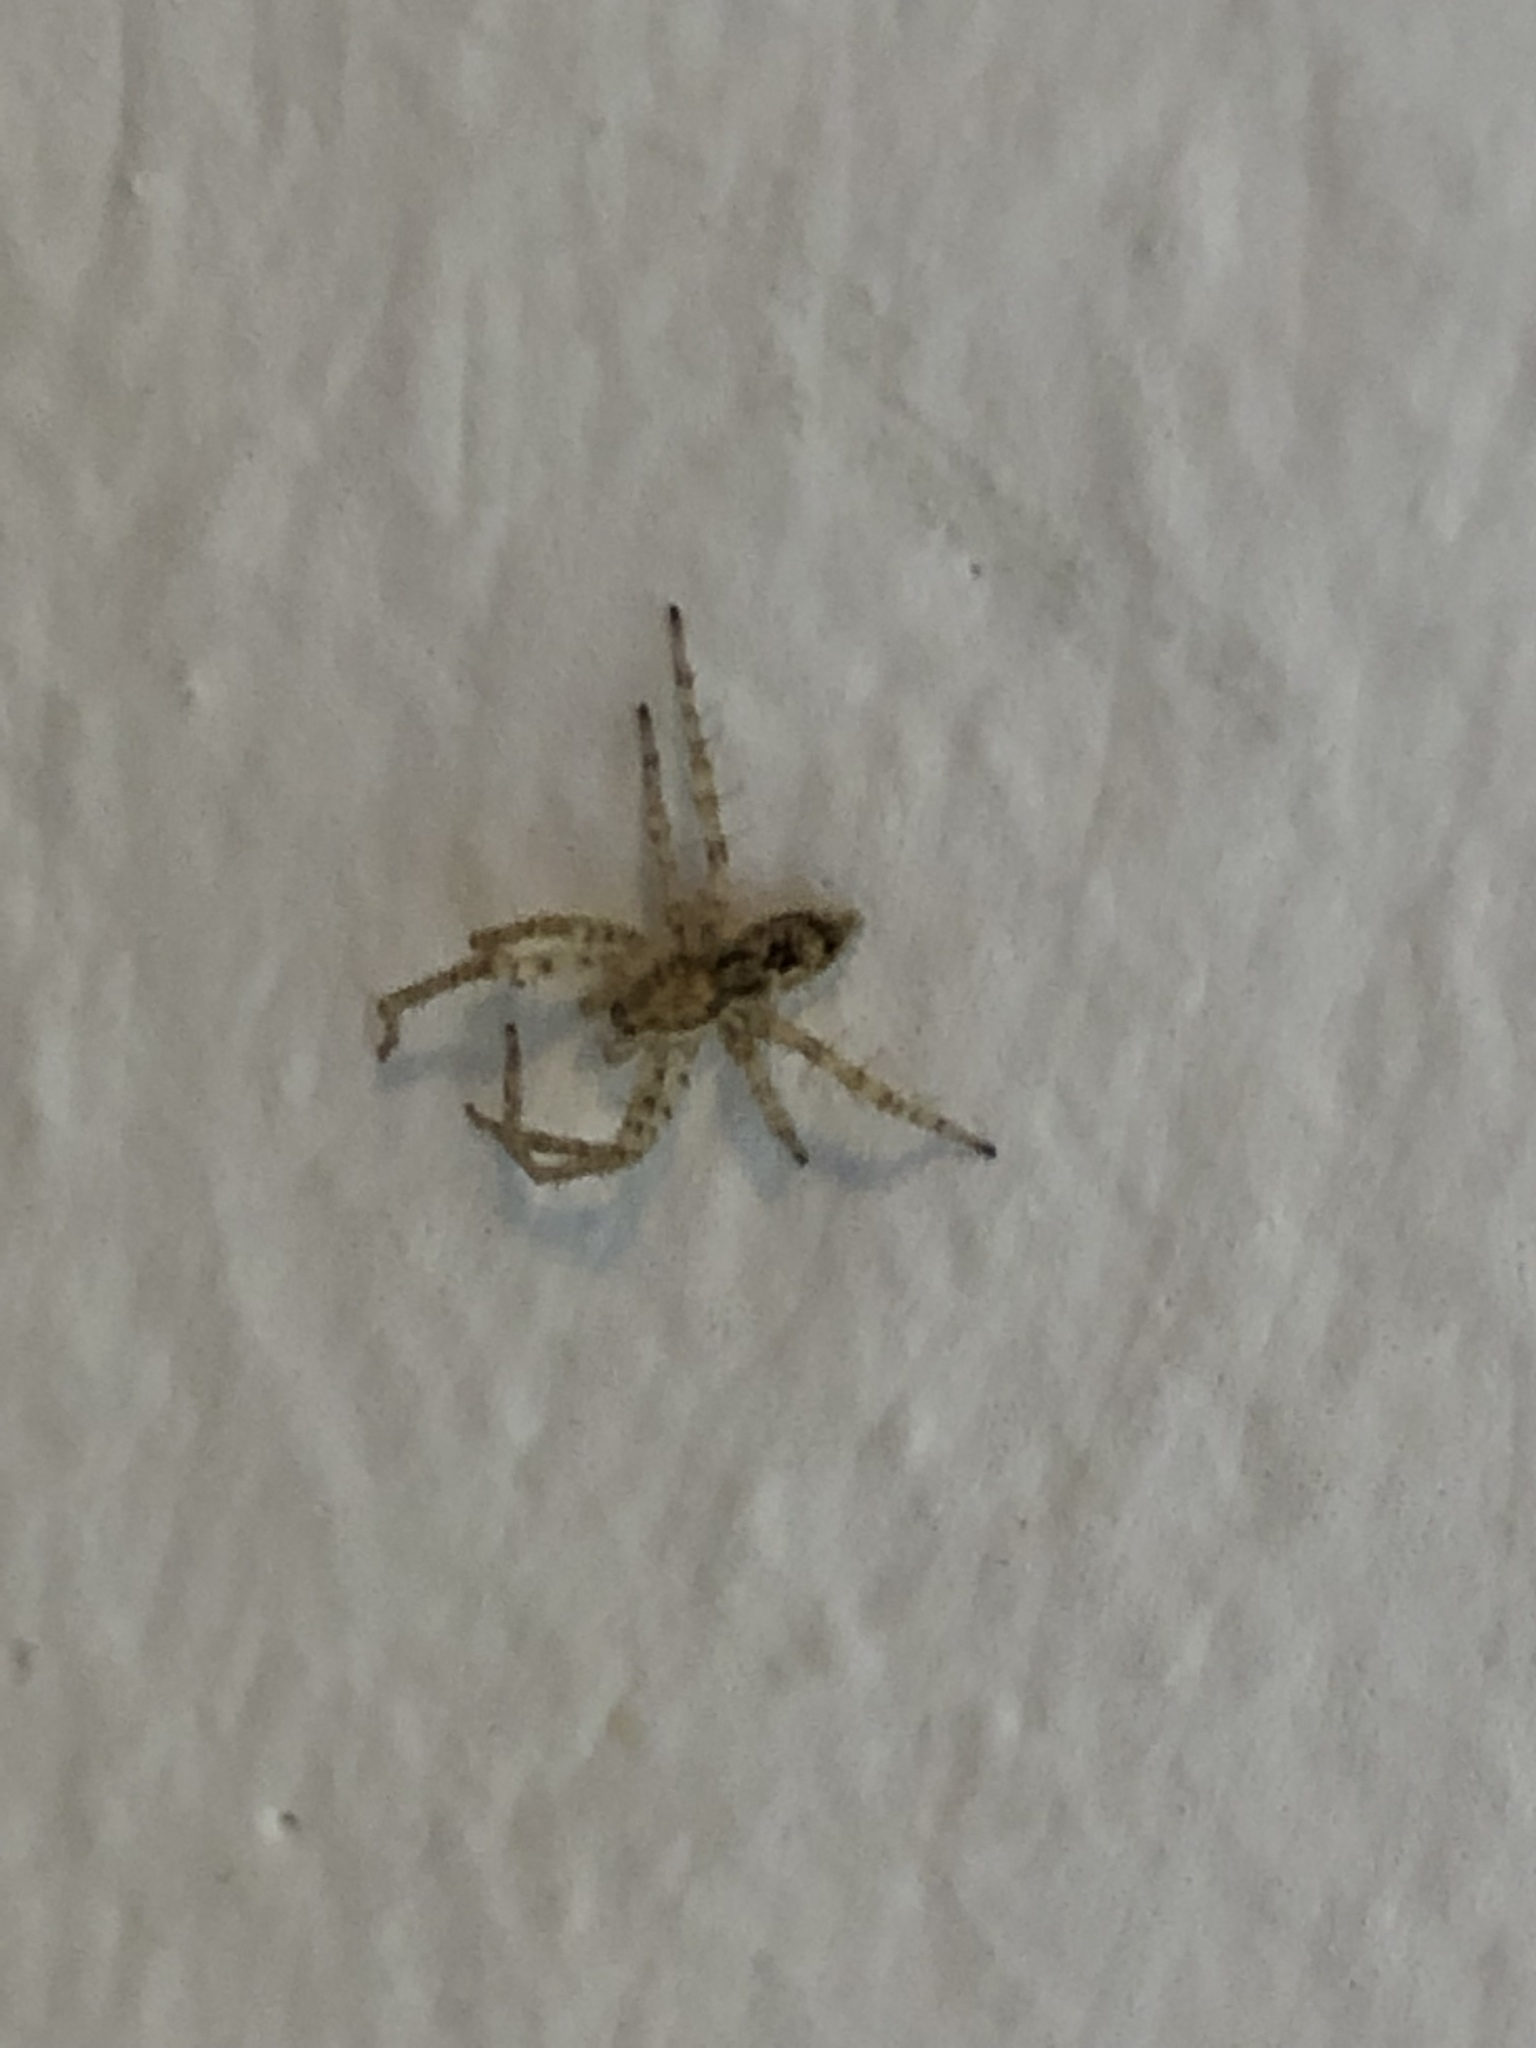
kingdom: Animalia
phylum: Arthropoda
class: Arachnida
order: Araneae
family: Anyphaenidae
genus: Anyphaena
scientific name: Anyphaena accentuata
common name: Buzzing spider
